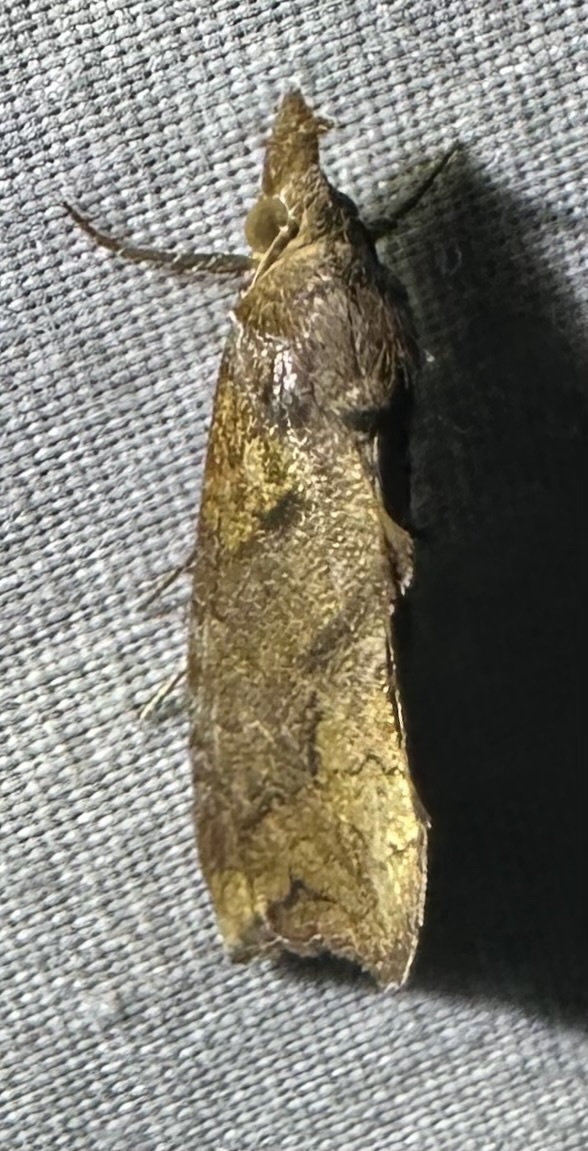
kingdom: Animalia
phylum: Arthropoda
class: Insecta
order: Lepidoptera
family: Erebidae
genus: Plusiodonta
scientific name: Plusiodonta natalensis
